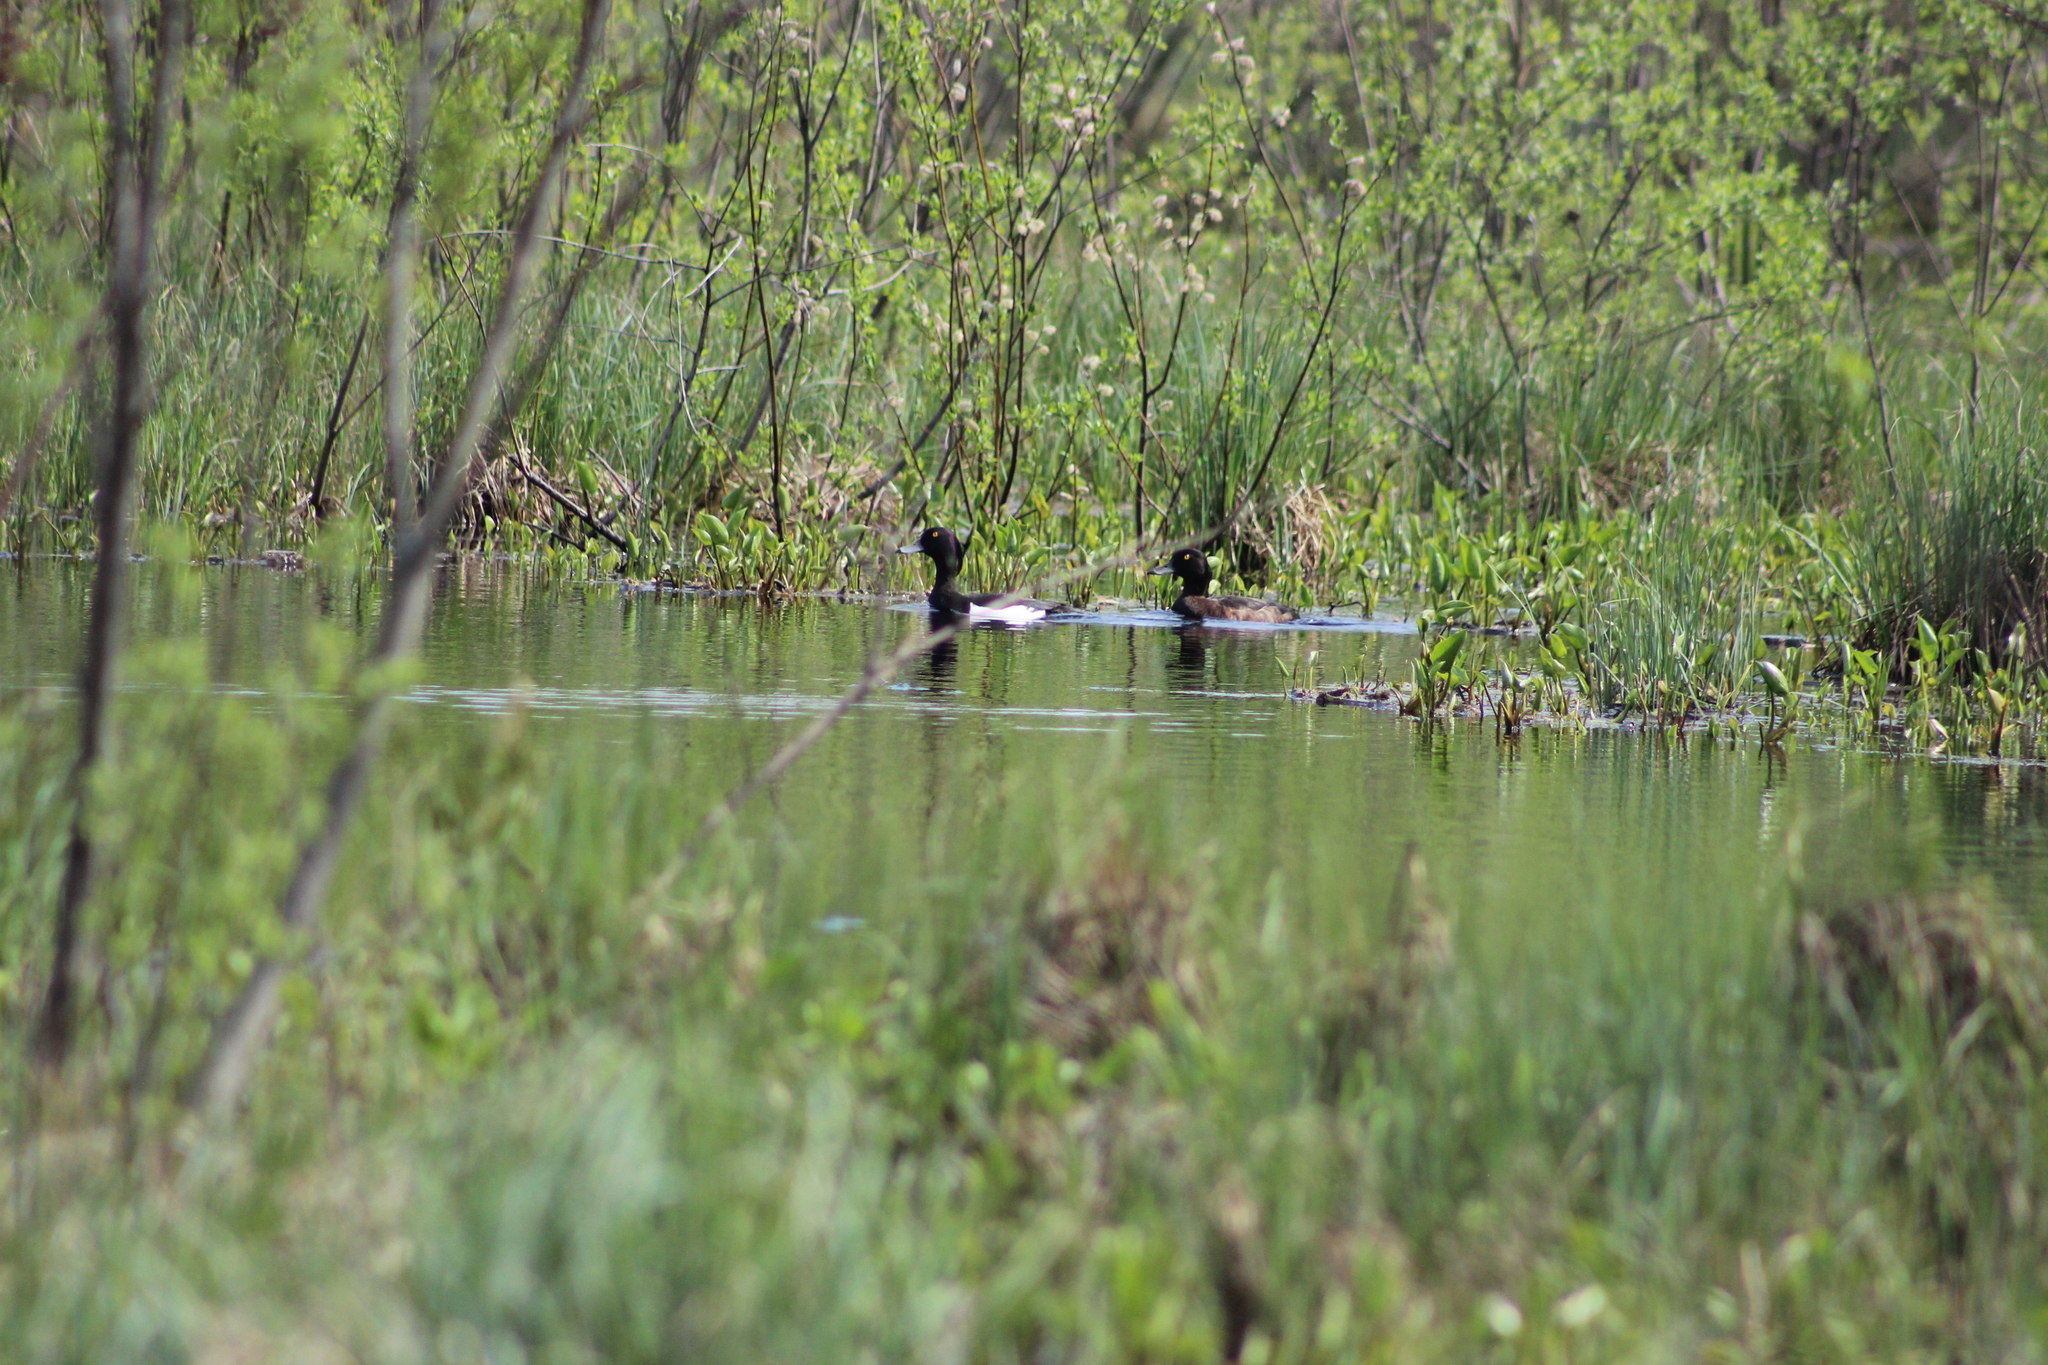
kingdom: Animalia
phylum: Chordata
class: Aves
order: Anseriformes
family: Anatidae
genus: Aythya
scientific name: Aythya fuligula
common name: Tufted duck
